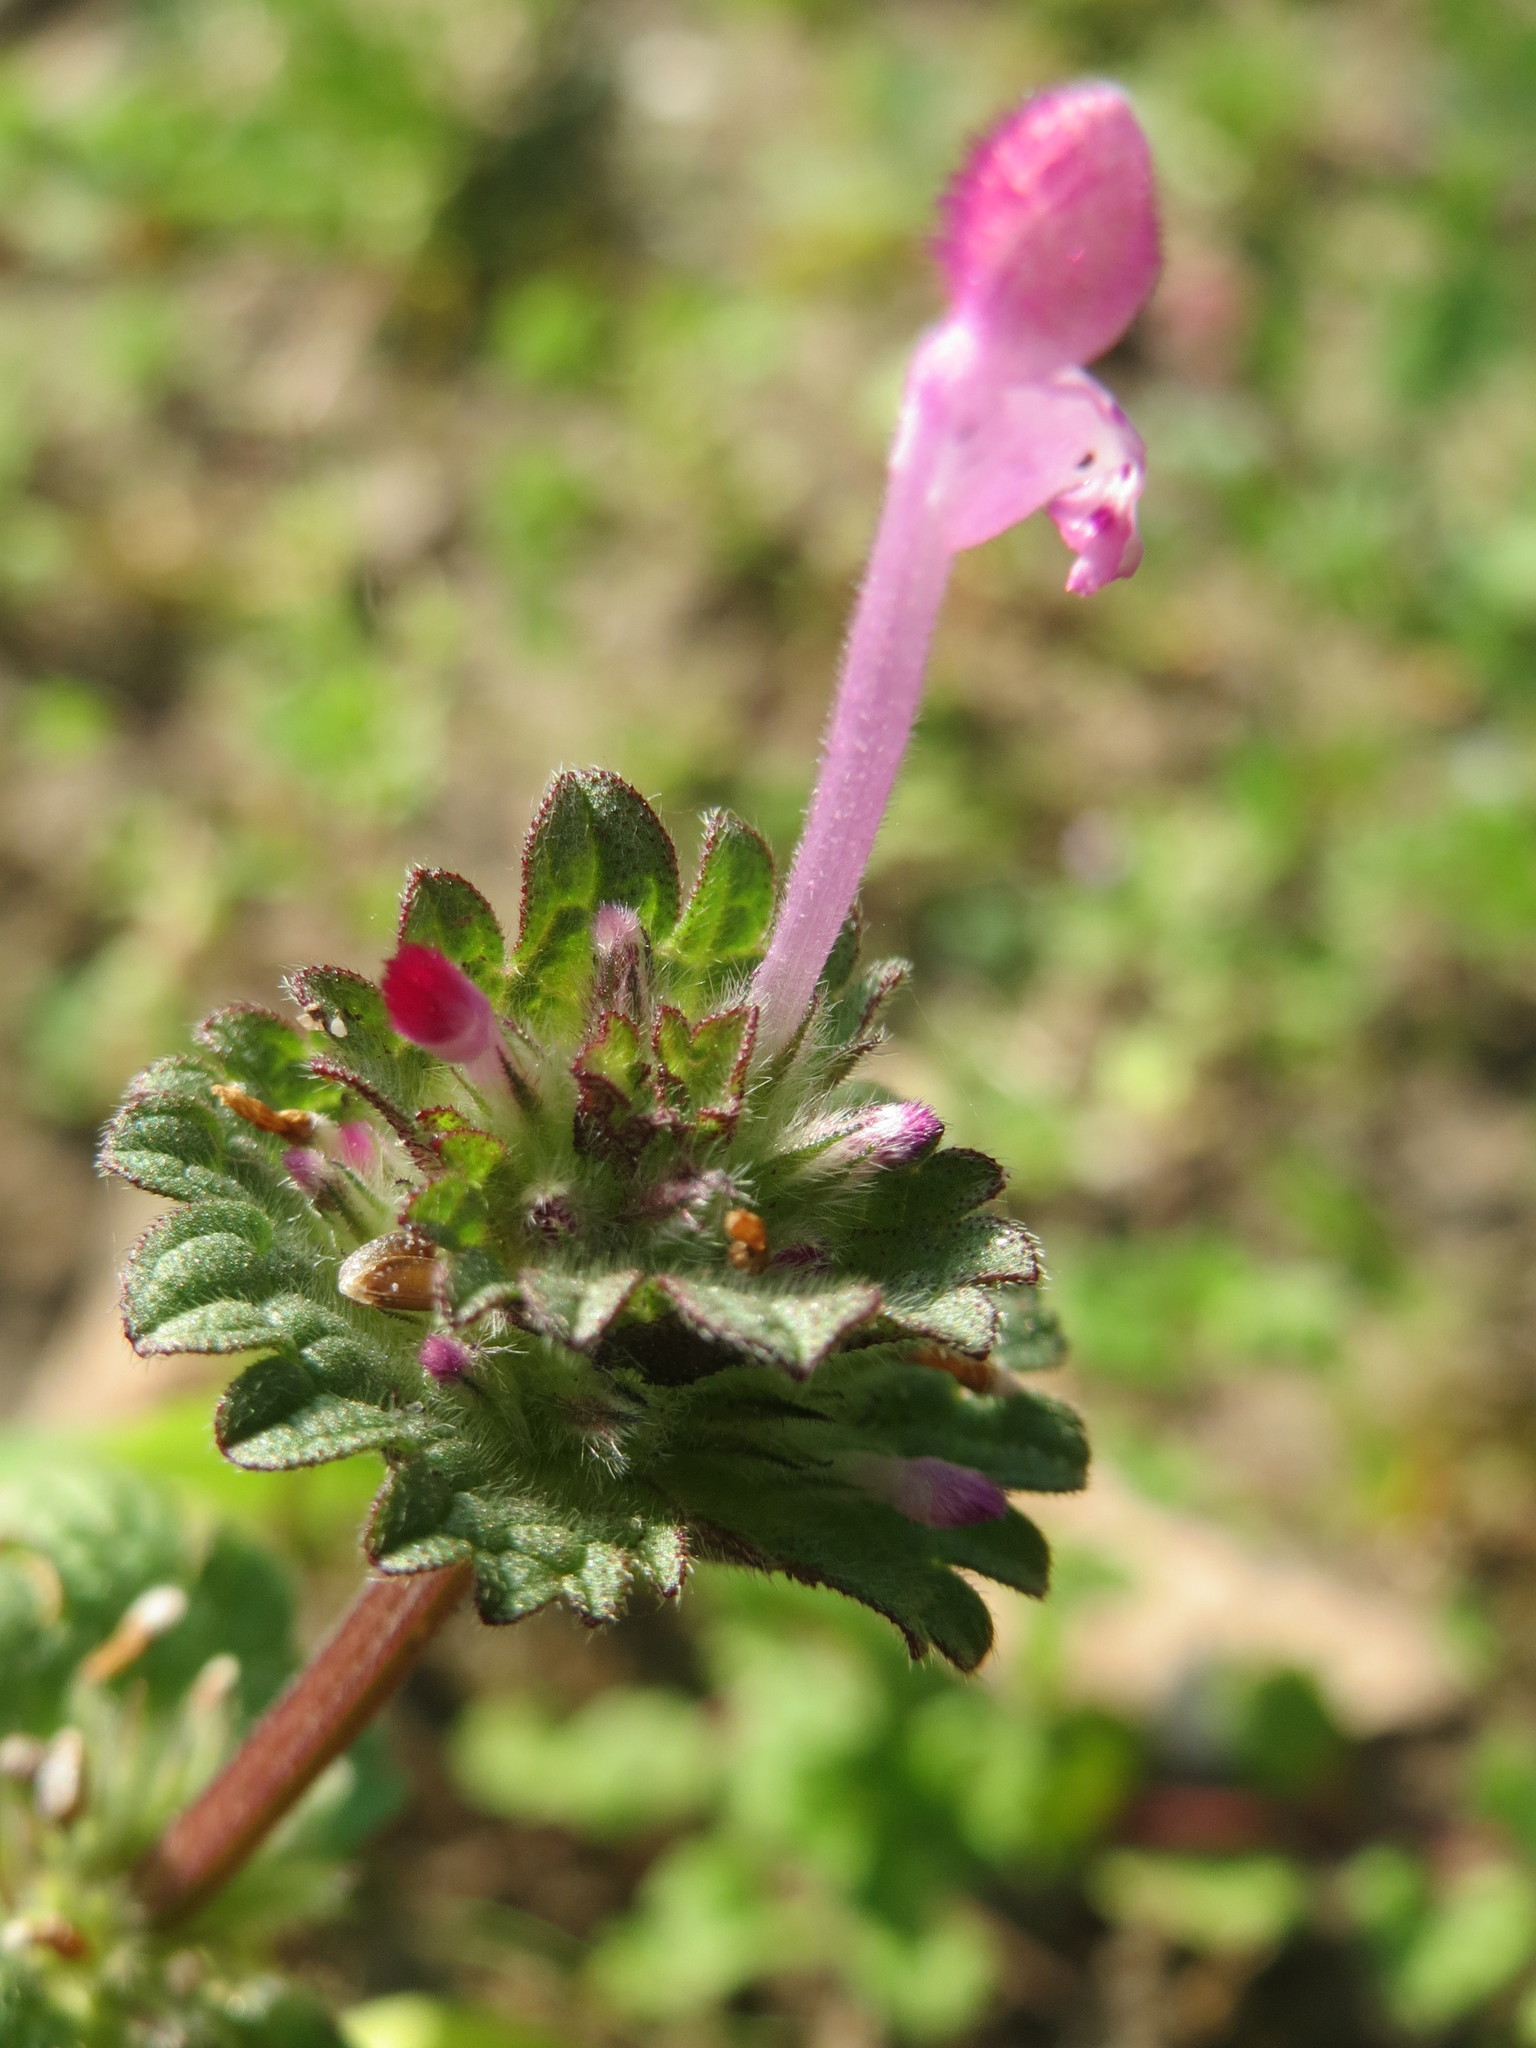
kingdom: Plantae
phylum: Tracheophyta
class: Magnoliopsida
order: Lamiales
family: Lamiaceae
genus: Lamium
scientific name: Lamium amplexicaule
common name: Henbit dead-nettle
